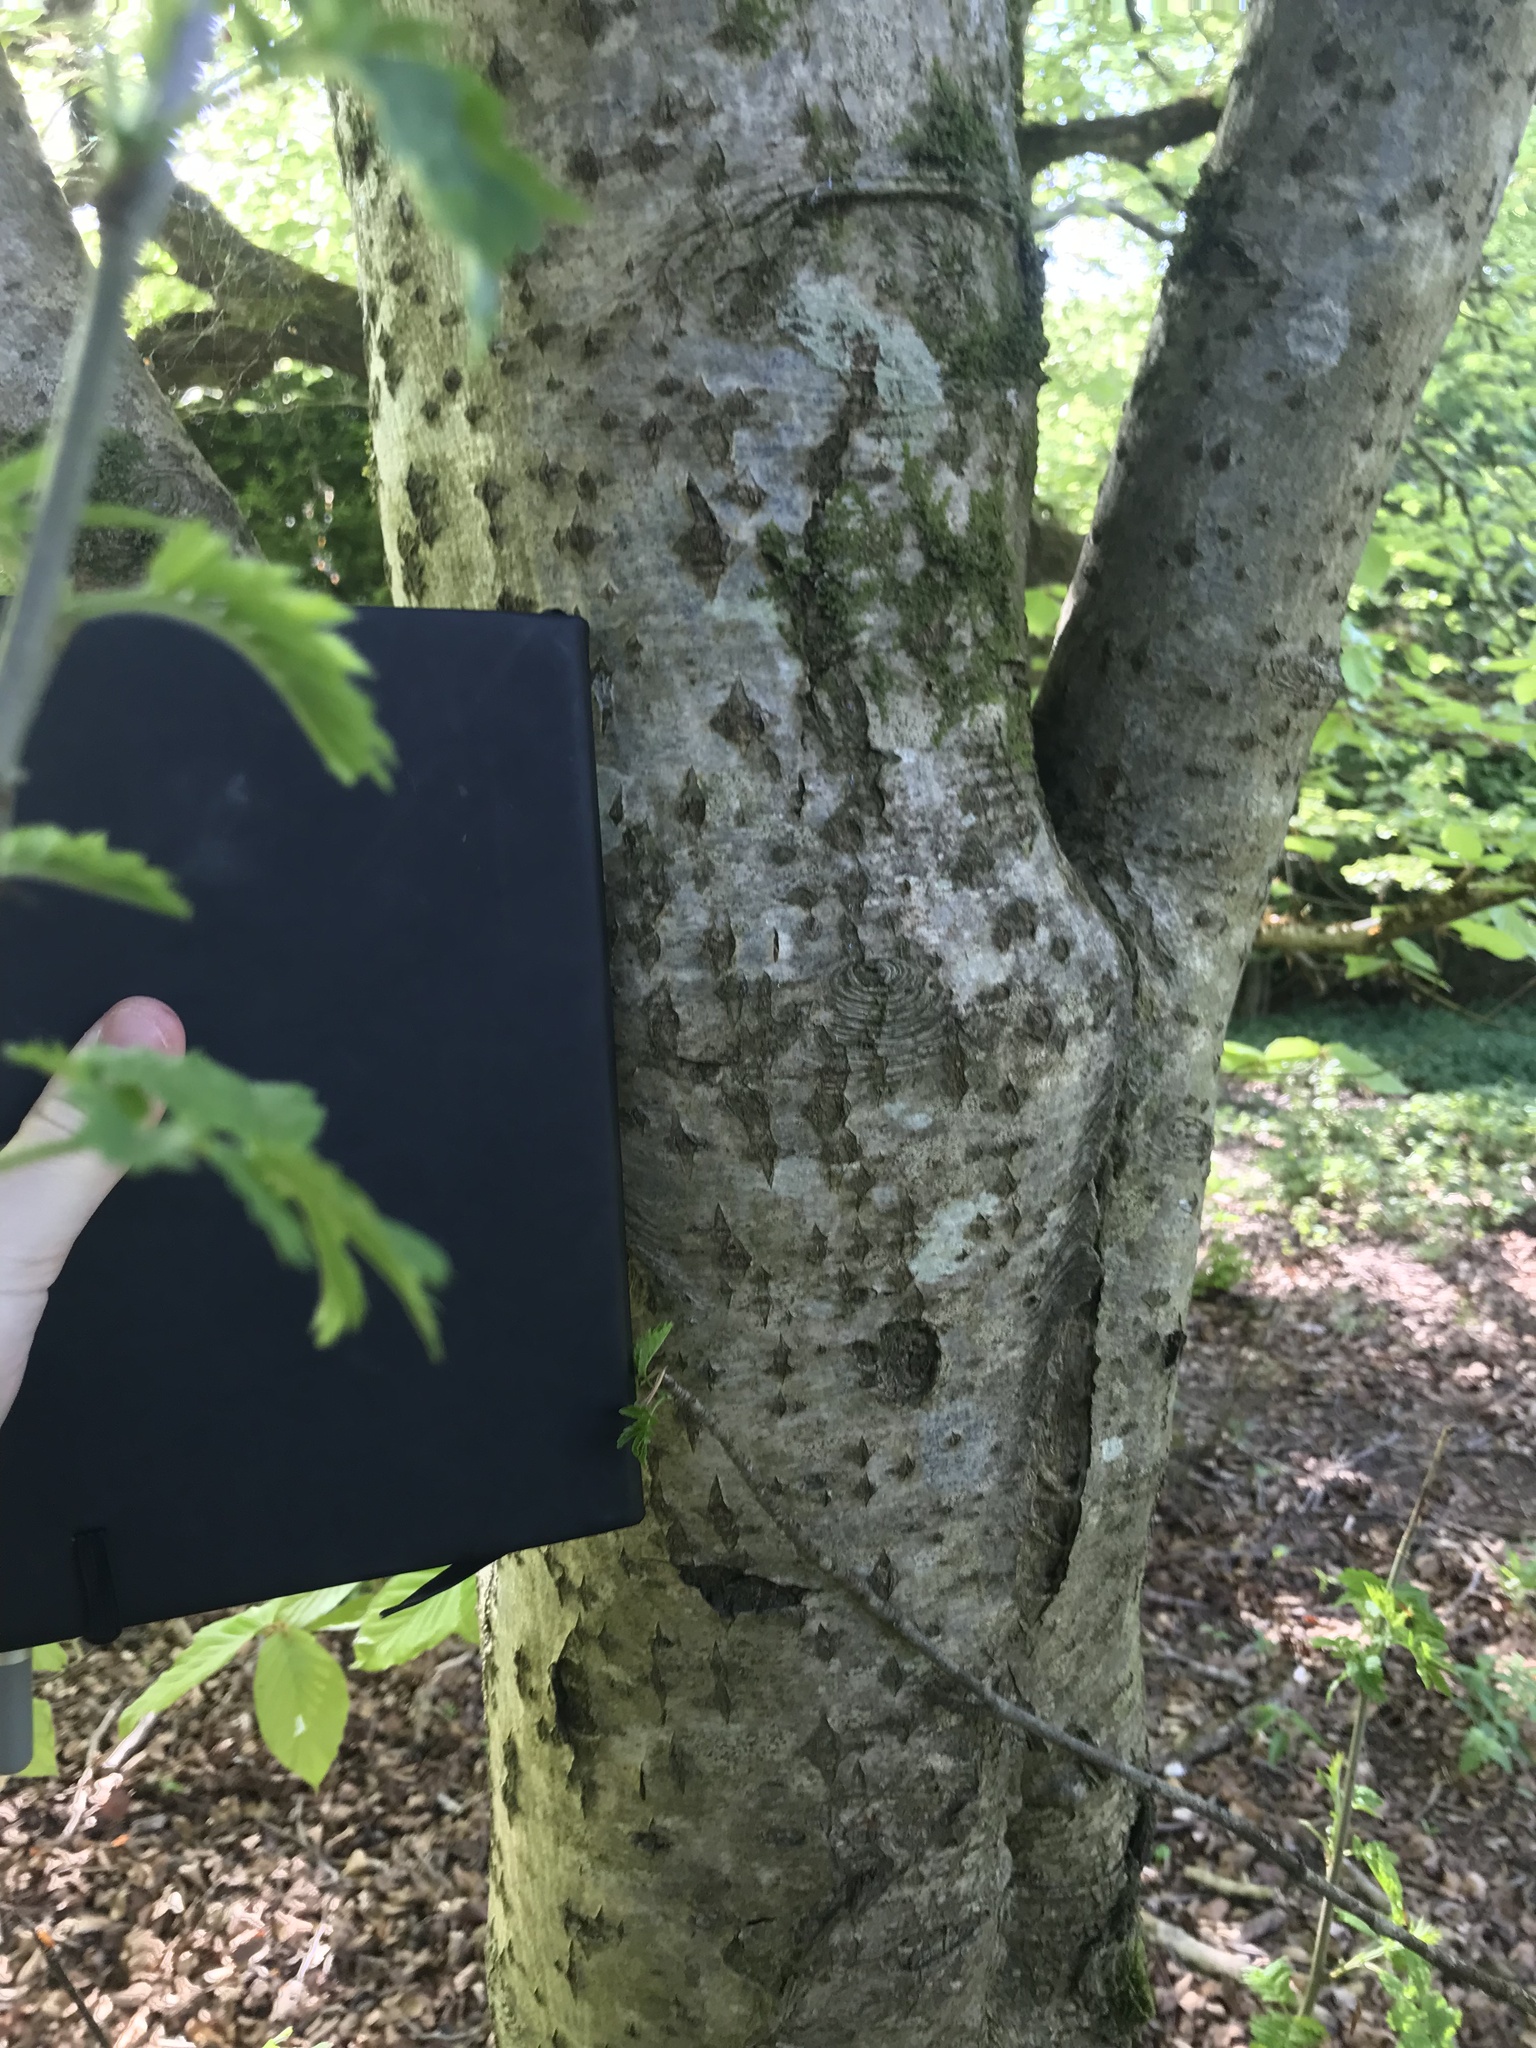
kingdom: Plantae
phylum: Tracheophyta
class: Magnoliopsida
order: Rosales
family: Rosaceae
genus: Sorbus
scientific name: Sorbus aucuparia
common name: Rowan
